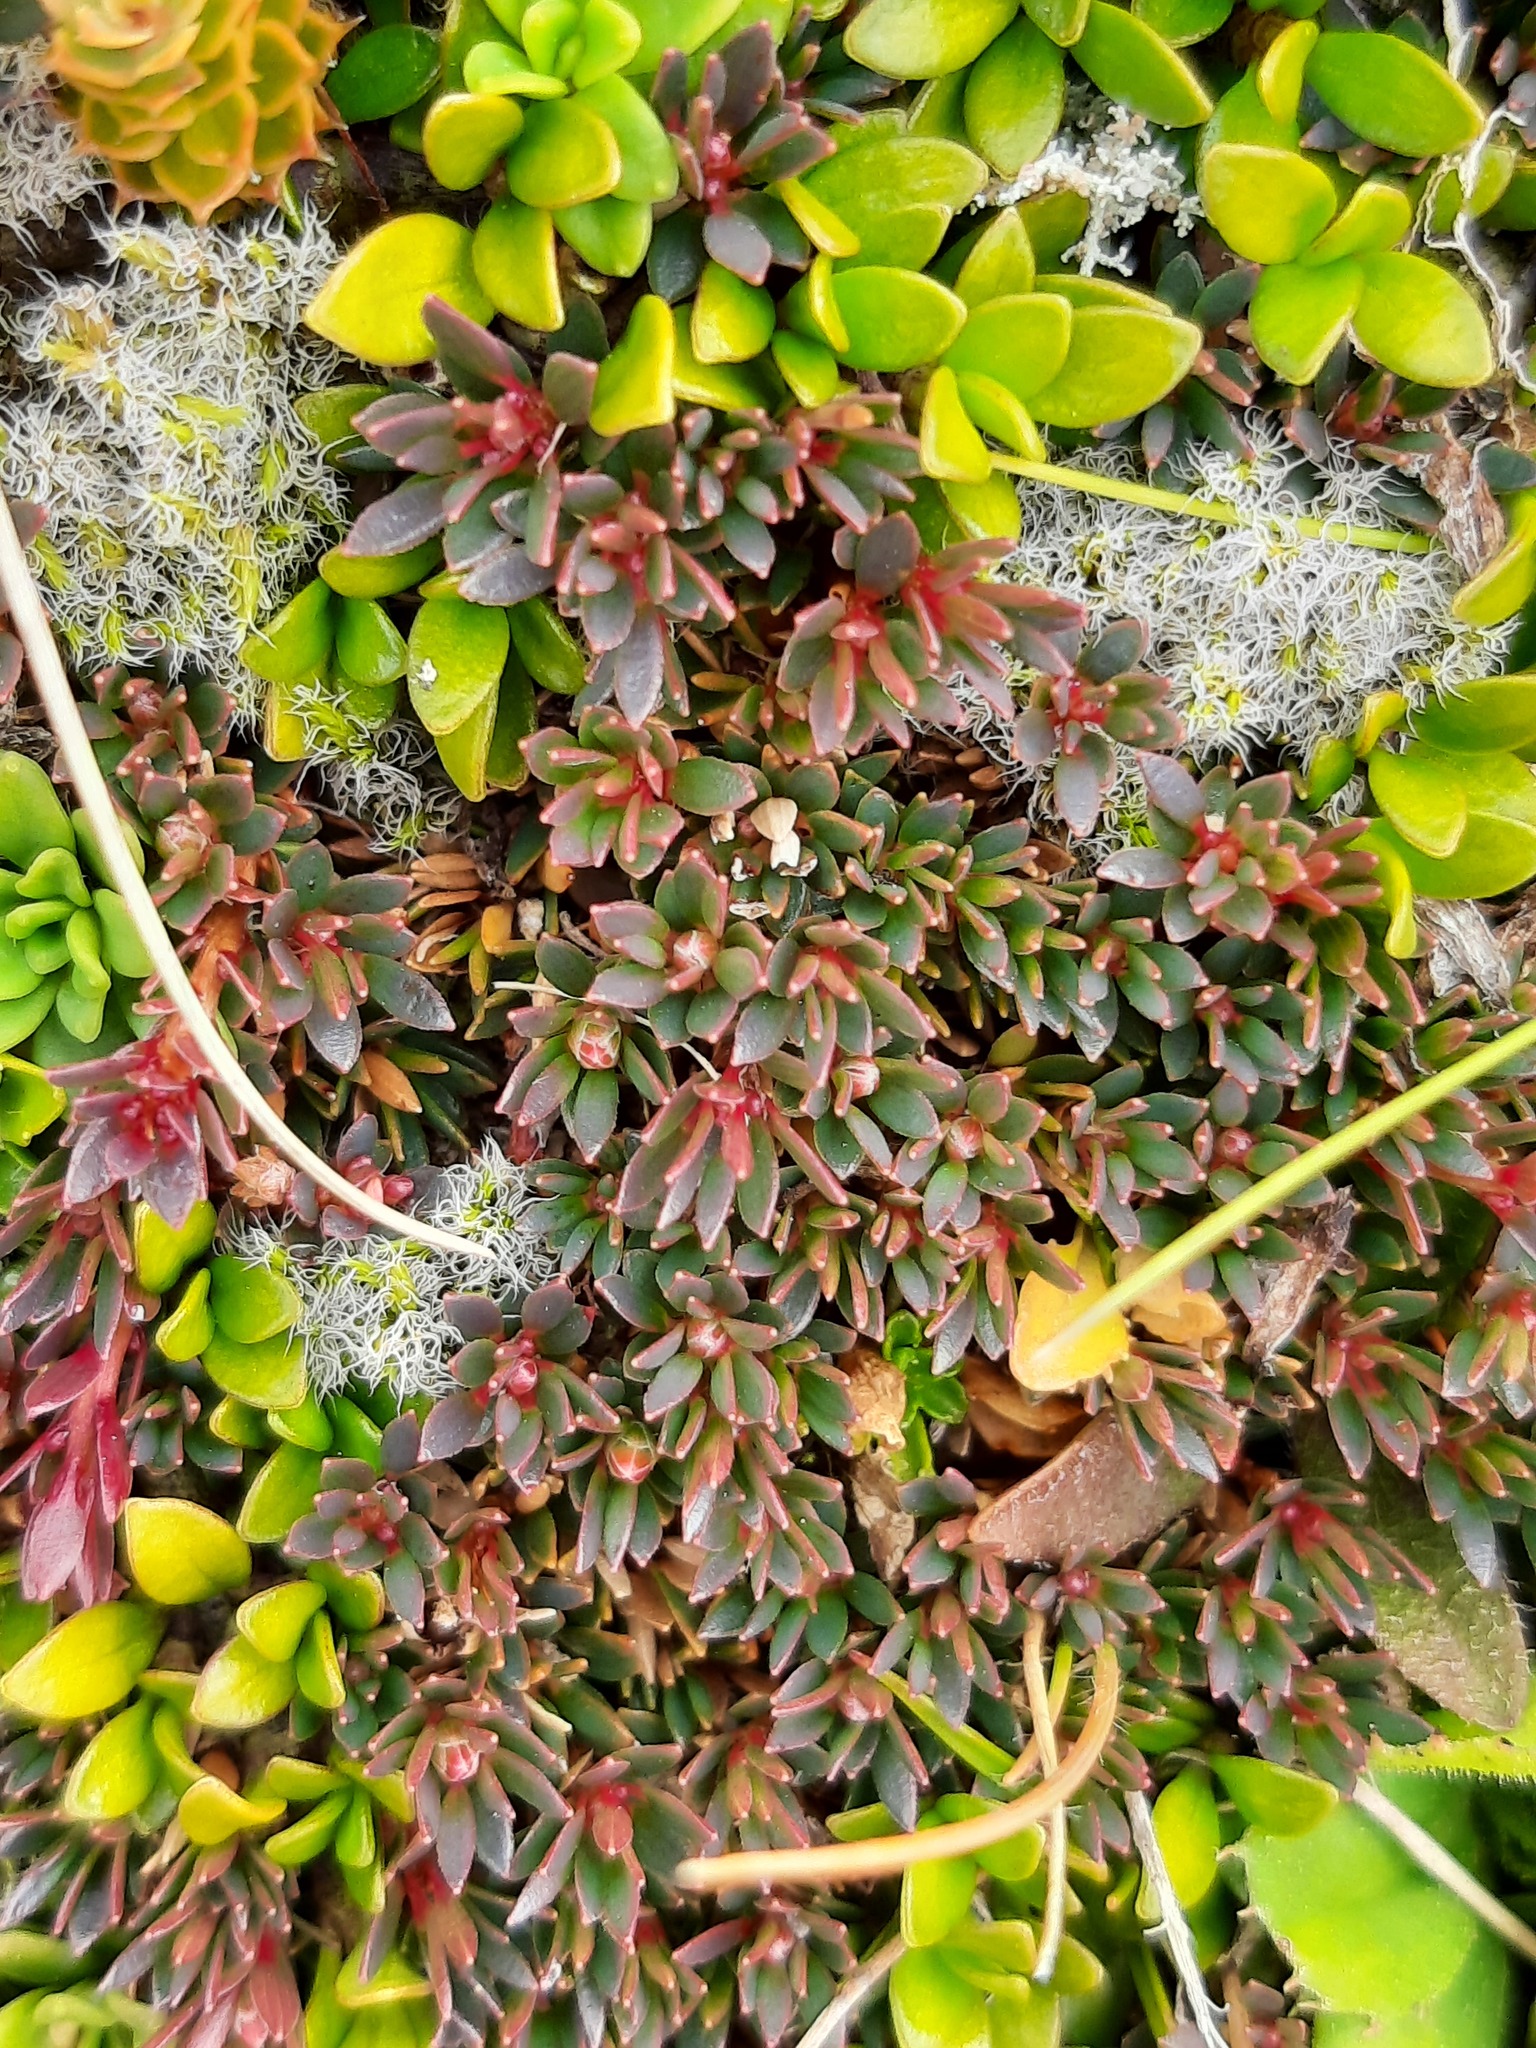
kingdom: Plantae
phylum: Tracheophyta
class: Magnoliopsida
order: Ericales
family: Ericaceae
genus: Pentachondra
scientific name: Pentachondra pumila
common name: Carpet-heath
